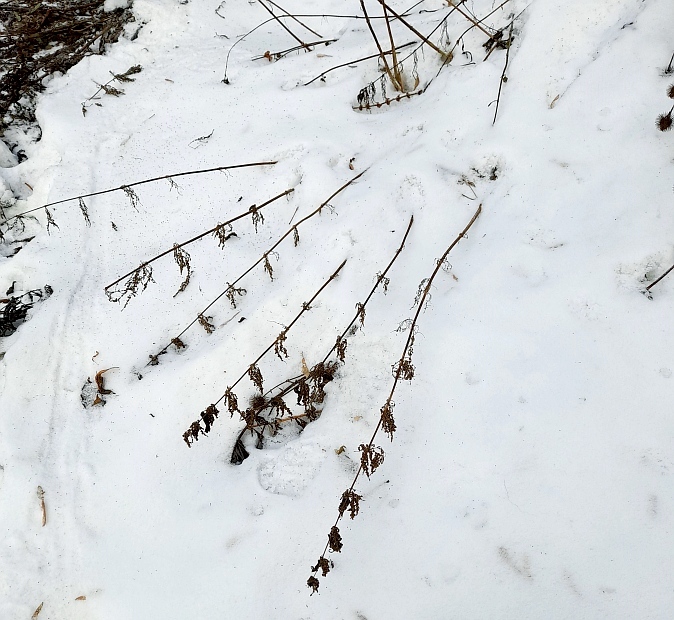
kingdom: Plantae
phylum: Tracheophyta
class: Magnoliopsida
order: Rosales
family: Urticaceae
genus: Urtica
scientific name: Urtica dioica
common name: Common nettle
